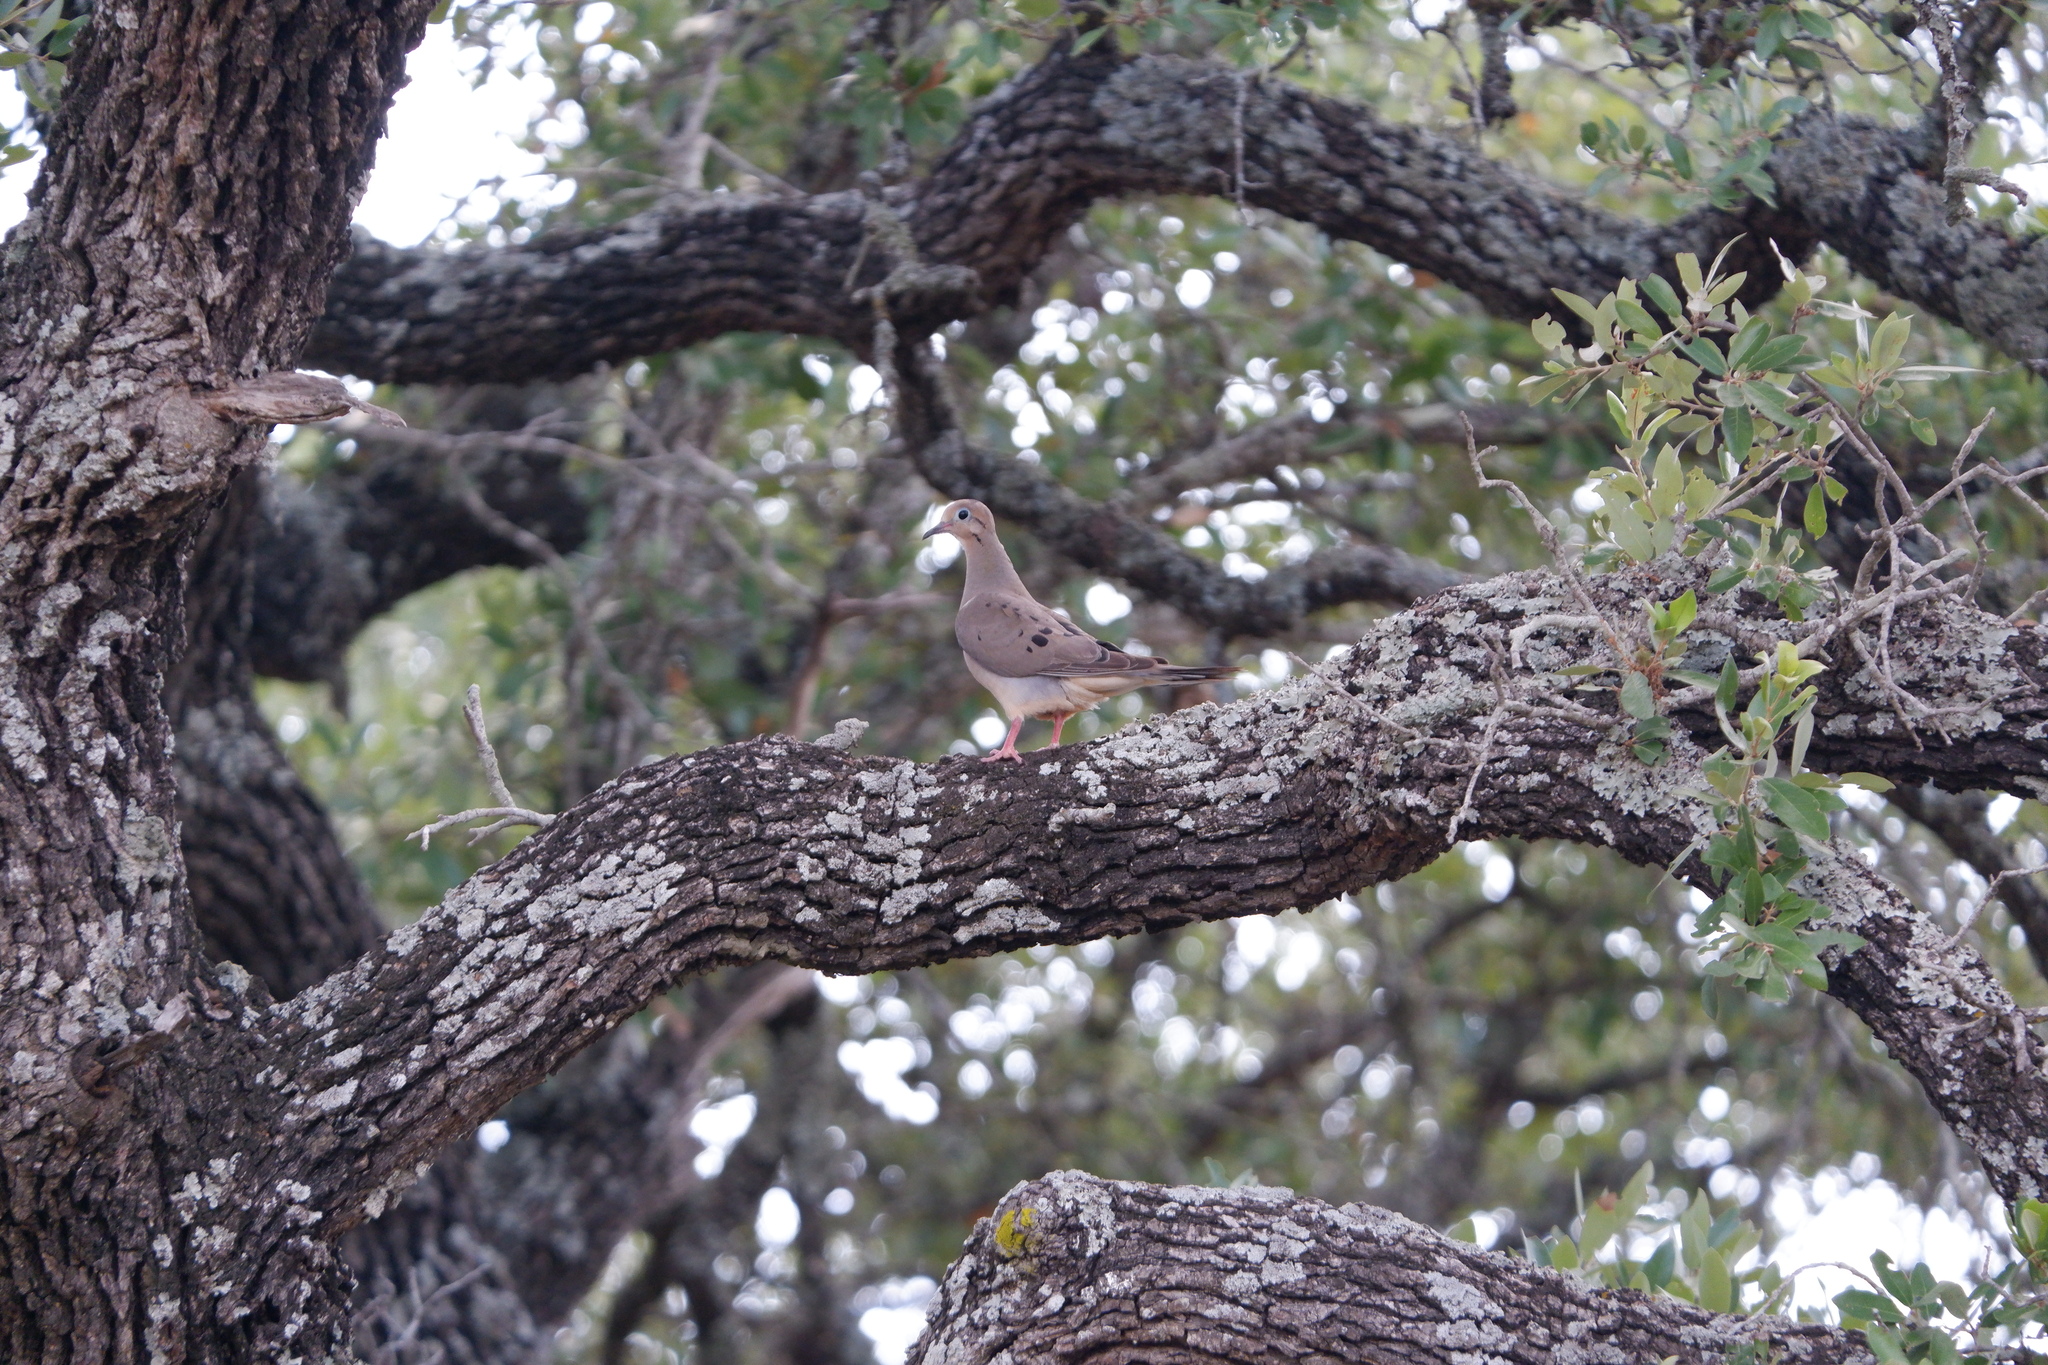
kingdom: Animalia
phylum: Chordata
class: Aves
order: Columbiformes
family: Columbidae
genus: Zenaida
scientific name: Zenaida macroura
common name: Mourning dove
